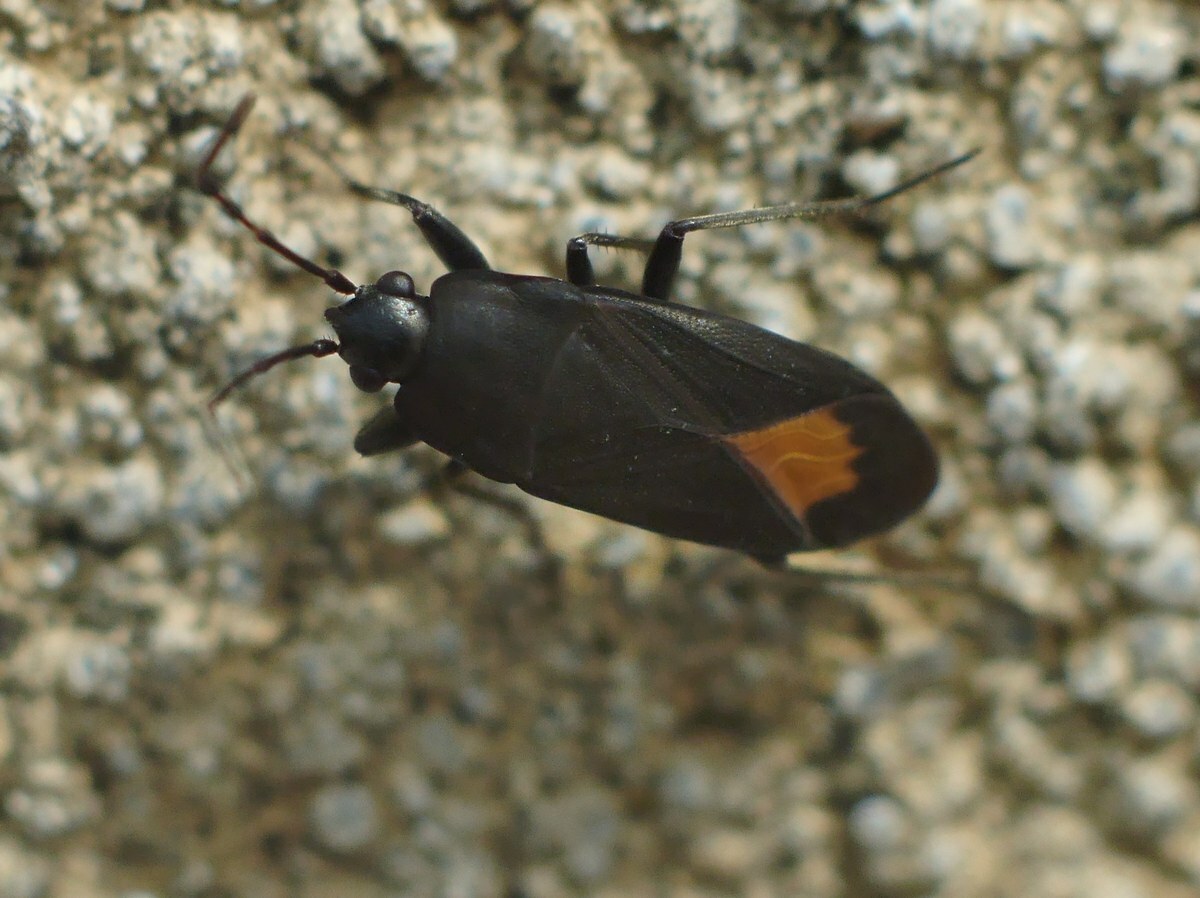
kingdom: Animalia
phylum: Arthropoda
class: Insecta
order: Hemiptera
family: Rhyparochromidae
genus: Aphanus
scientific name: Aphanus rolandri
